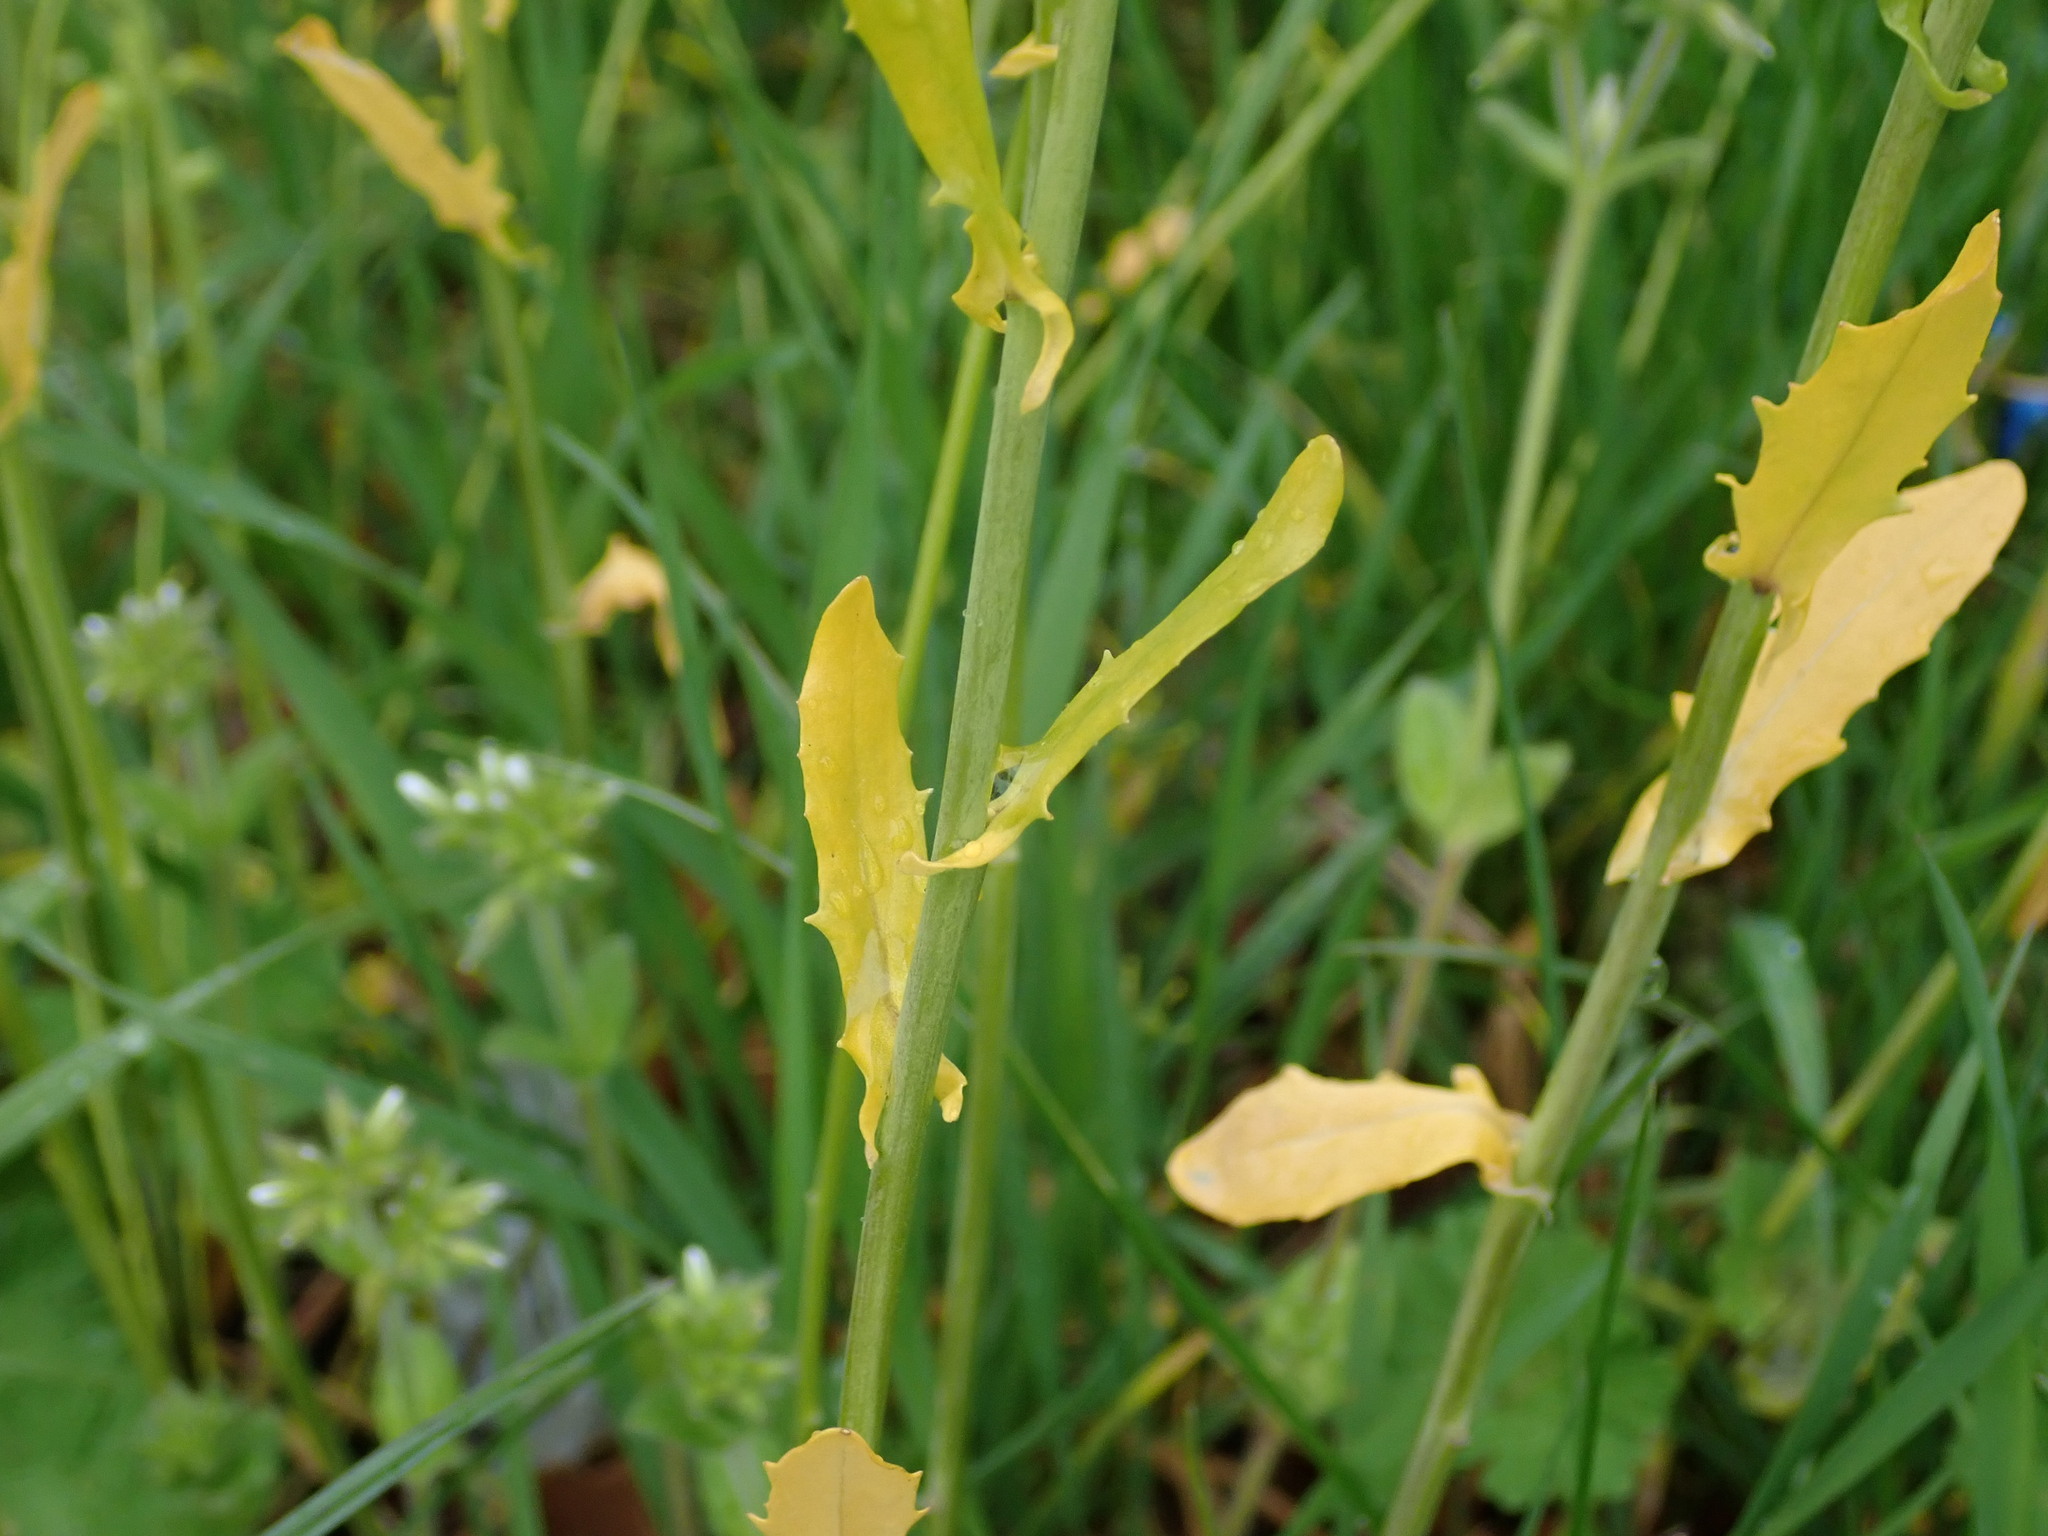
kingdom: Plantae
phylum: Tracheophyta
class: Magnoliopsida
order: Brassicales
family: Brassicaceae
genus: Mummenhoffia
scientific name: Mummenhoffia alliacea
